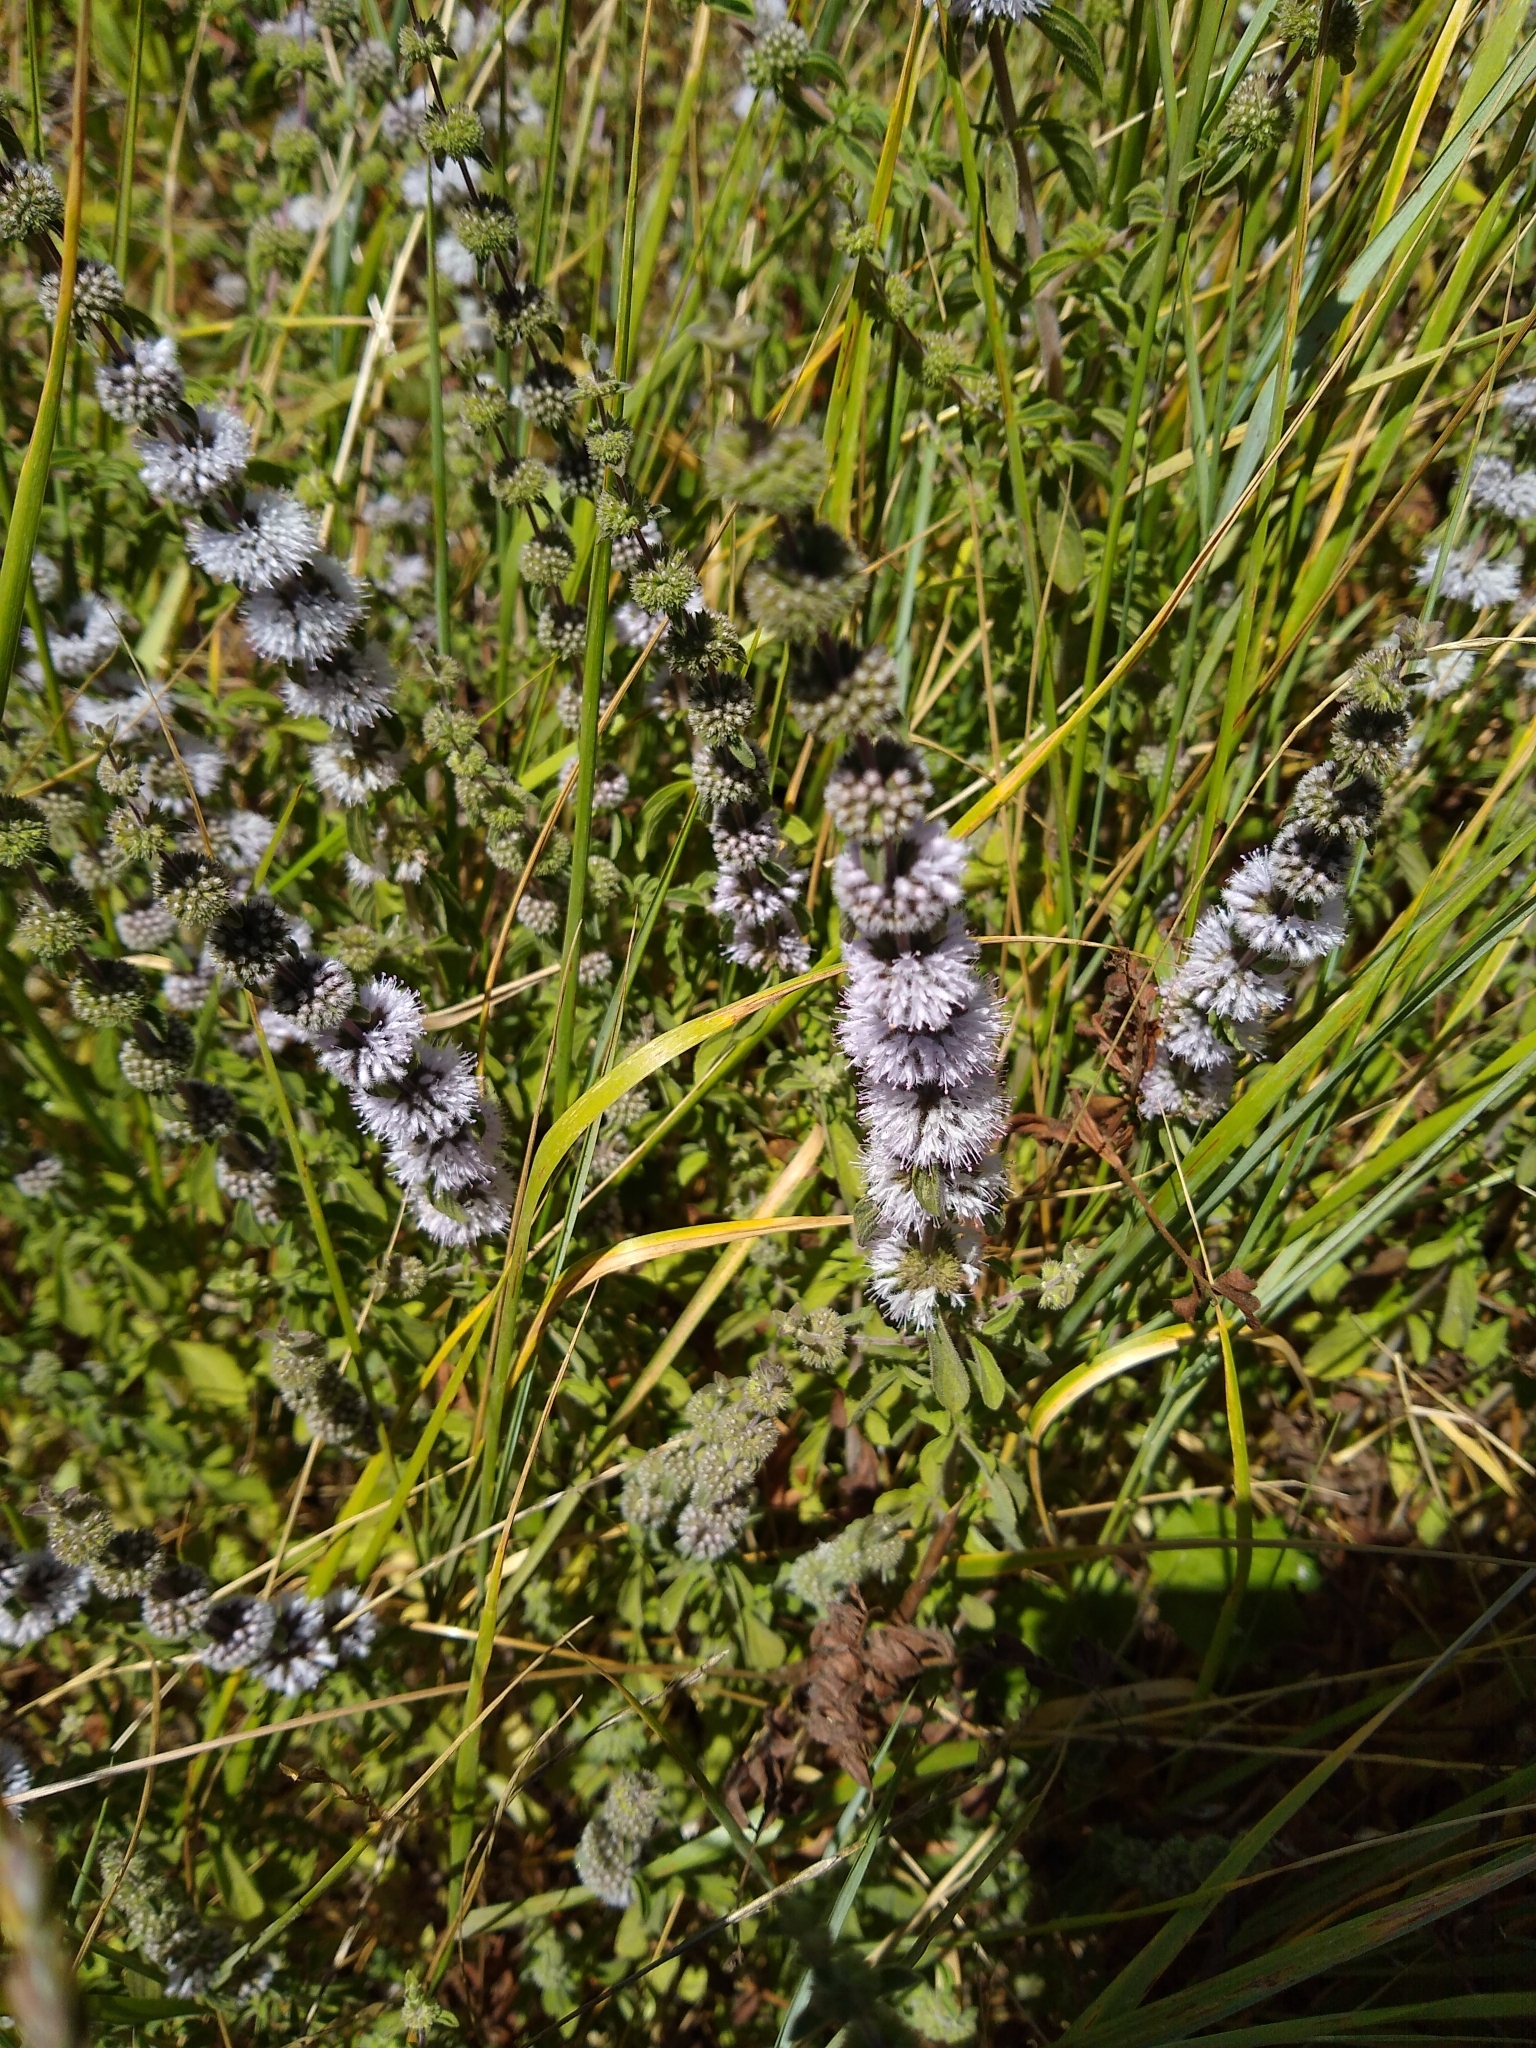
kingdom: Plantae
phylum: Tracheophyta
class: Magnoliopsida
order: Lamiales
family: Lamiaceae
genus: Mentha
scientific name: Mentha pulegium
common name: Pennyroyal
